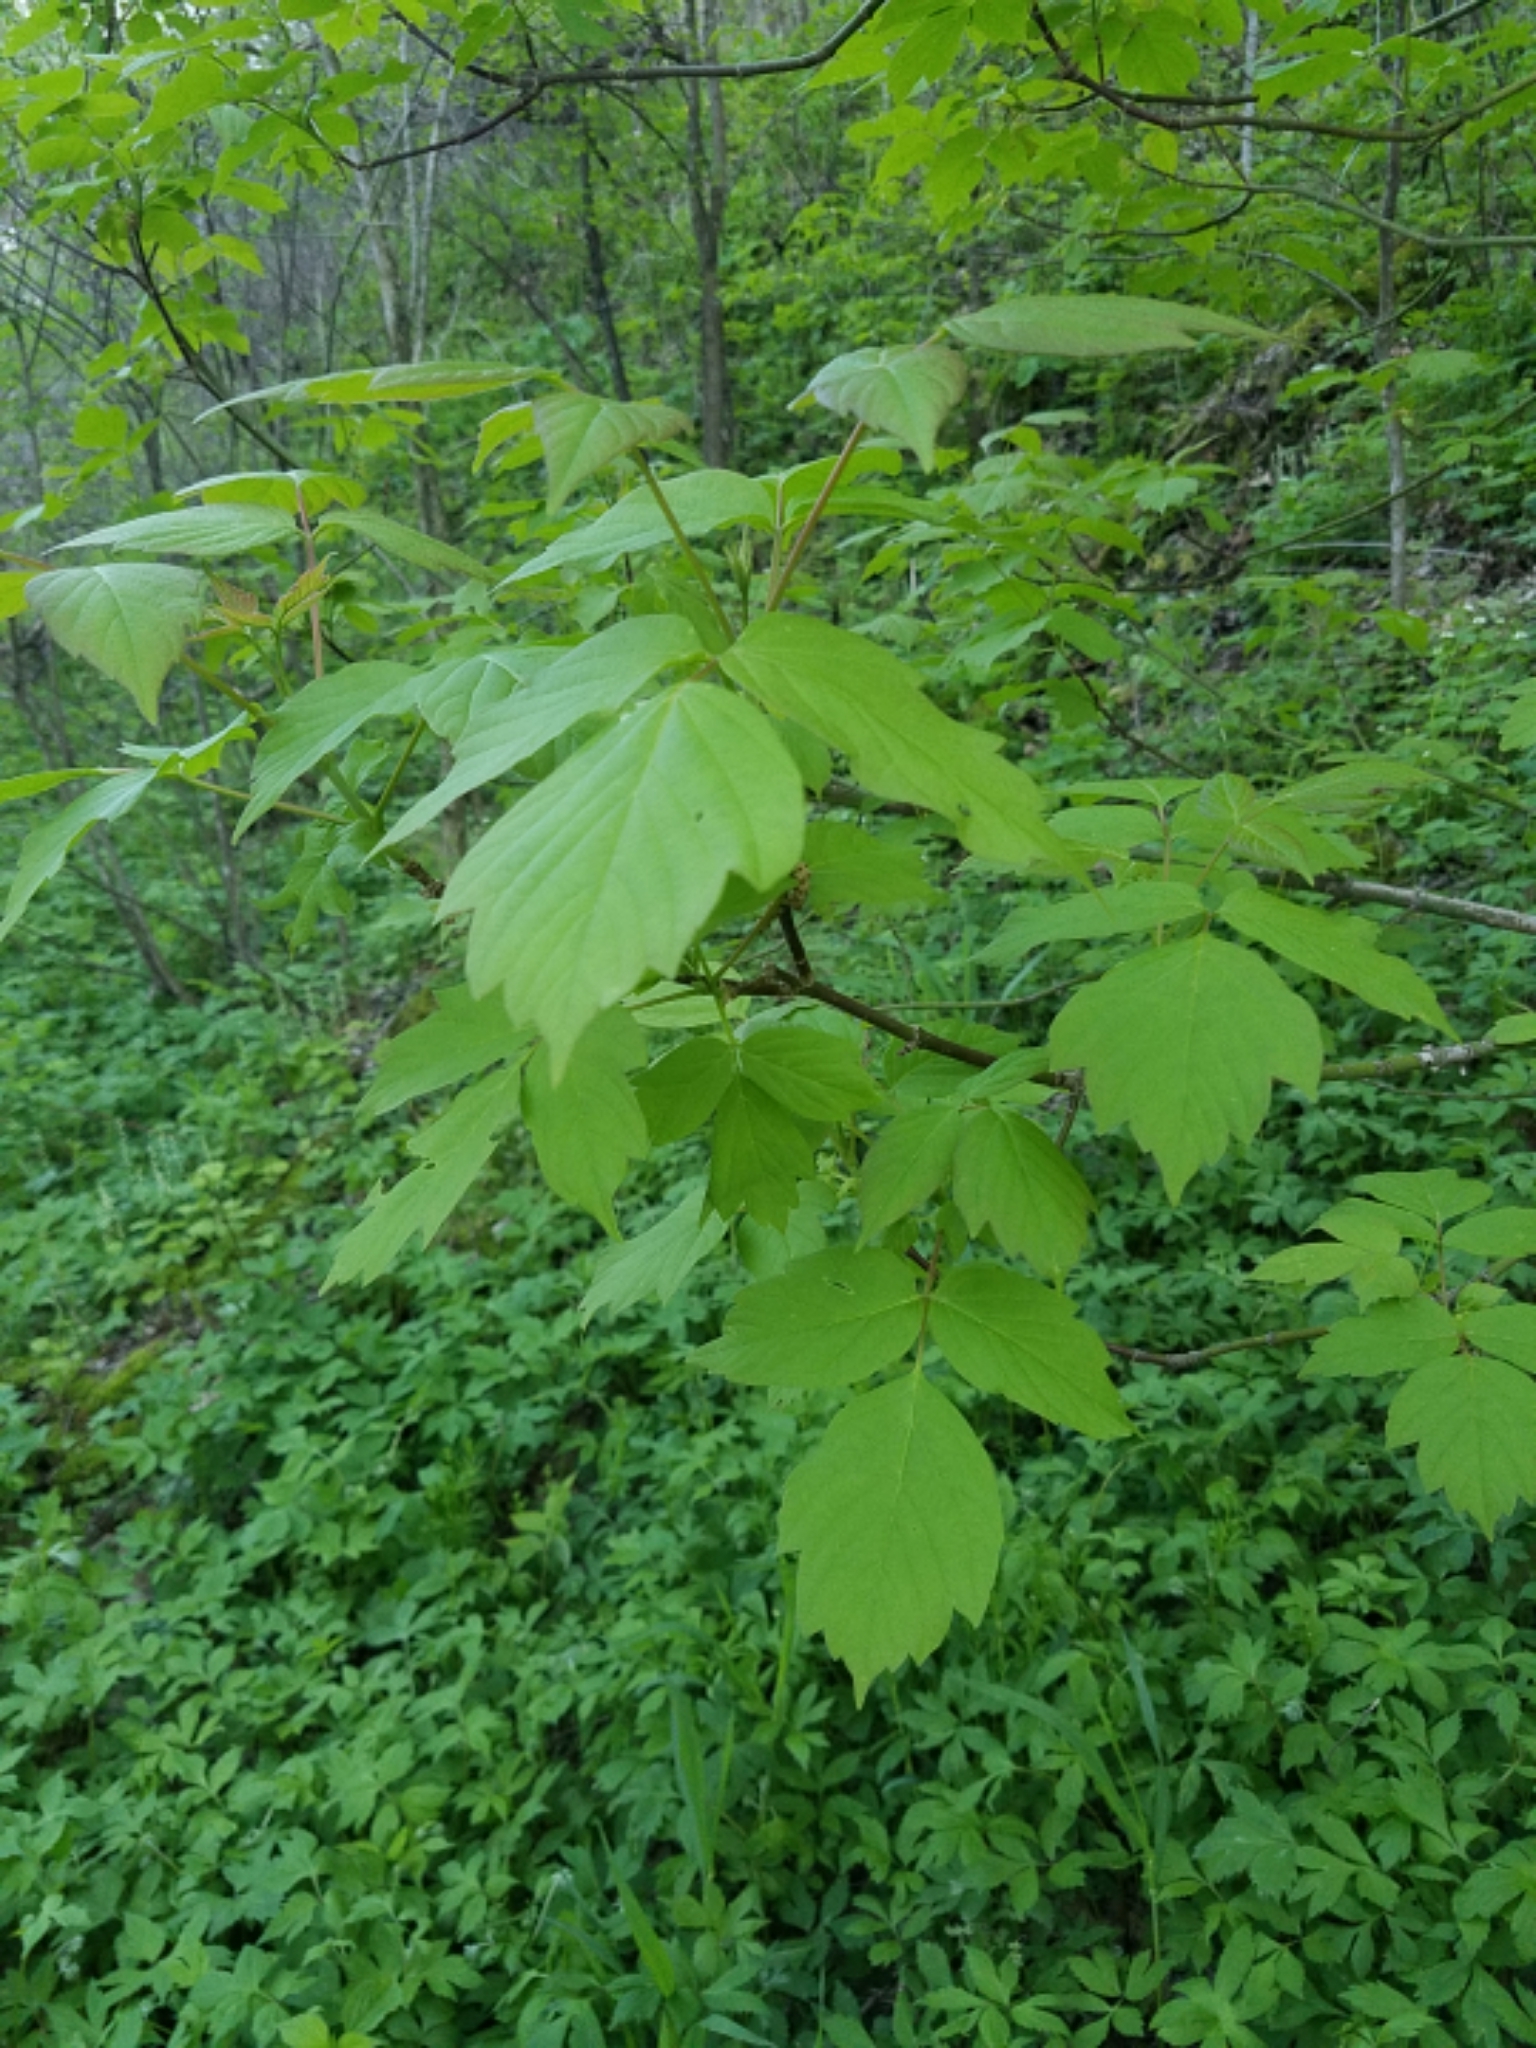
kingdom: Plantae
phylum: Tracheophyta
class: Magnoliopsida
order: Sapindales
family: Sapindaceae
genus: Acer
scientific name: Acer negundo
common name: Ashleaf maple
